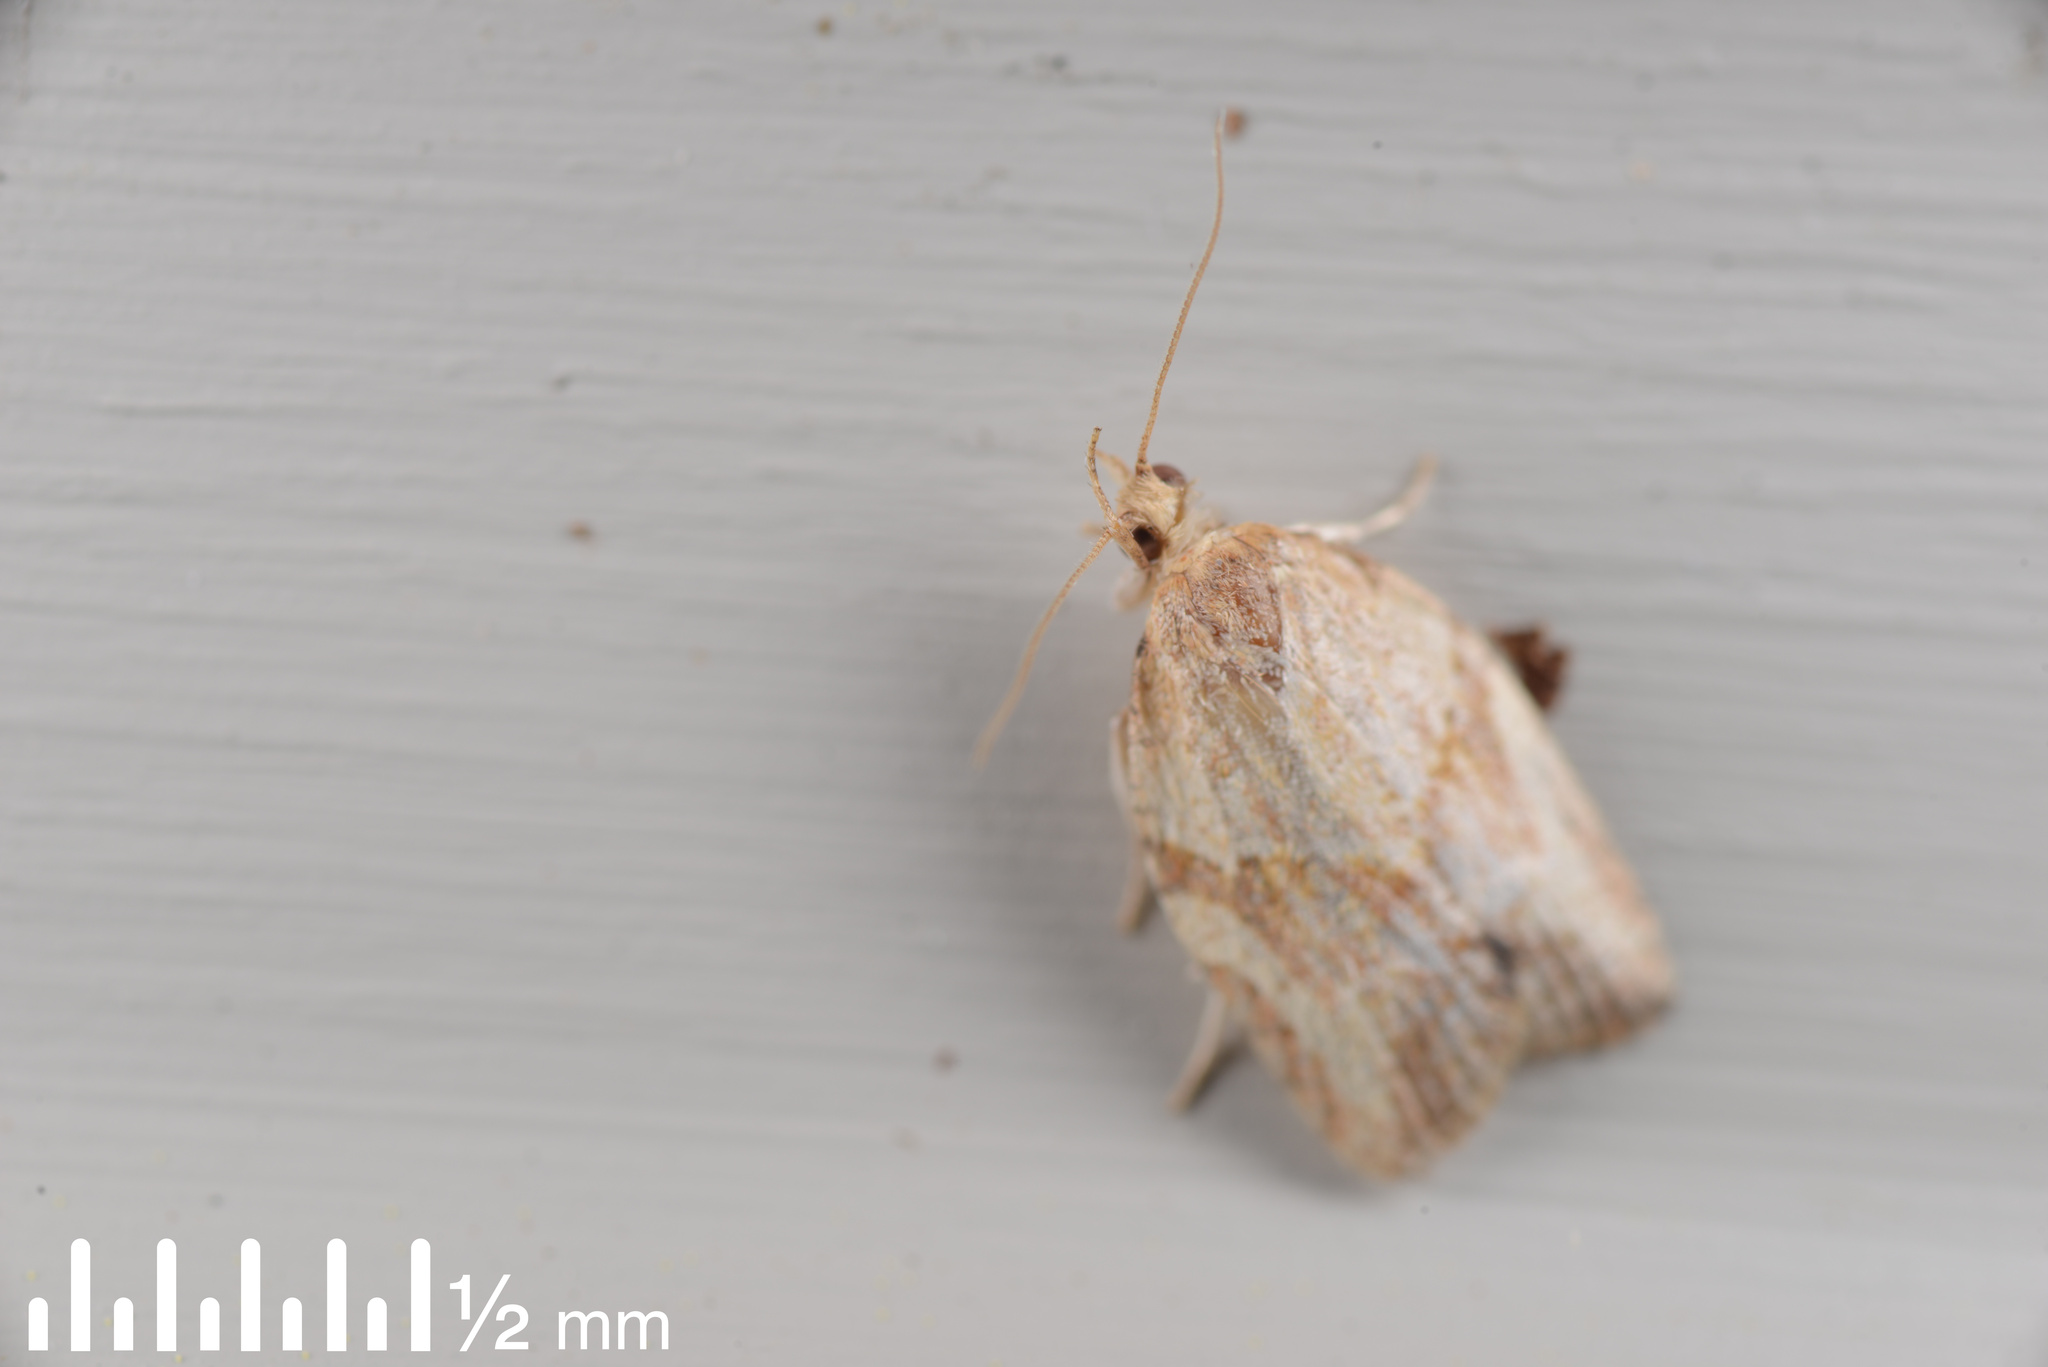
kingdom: Animalia
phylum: Arthropoda
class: Insecta
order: Lepidoptera
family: Tortricidae
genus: Epiphyas
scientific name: Epiphyas postvittana
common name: Light brown apple moth
